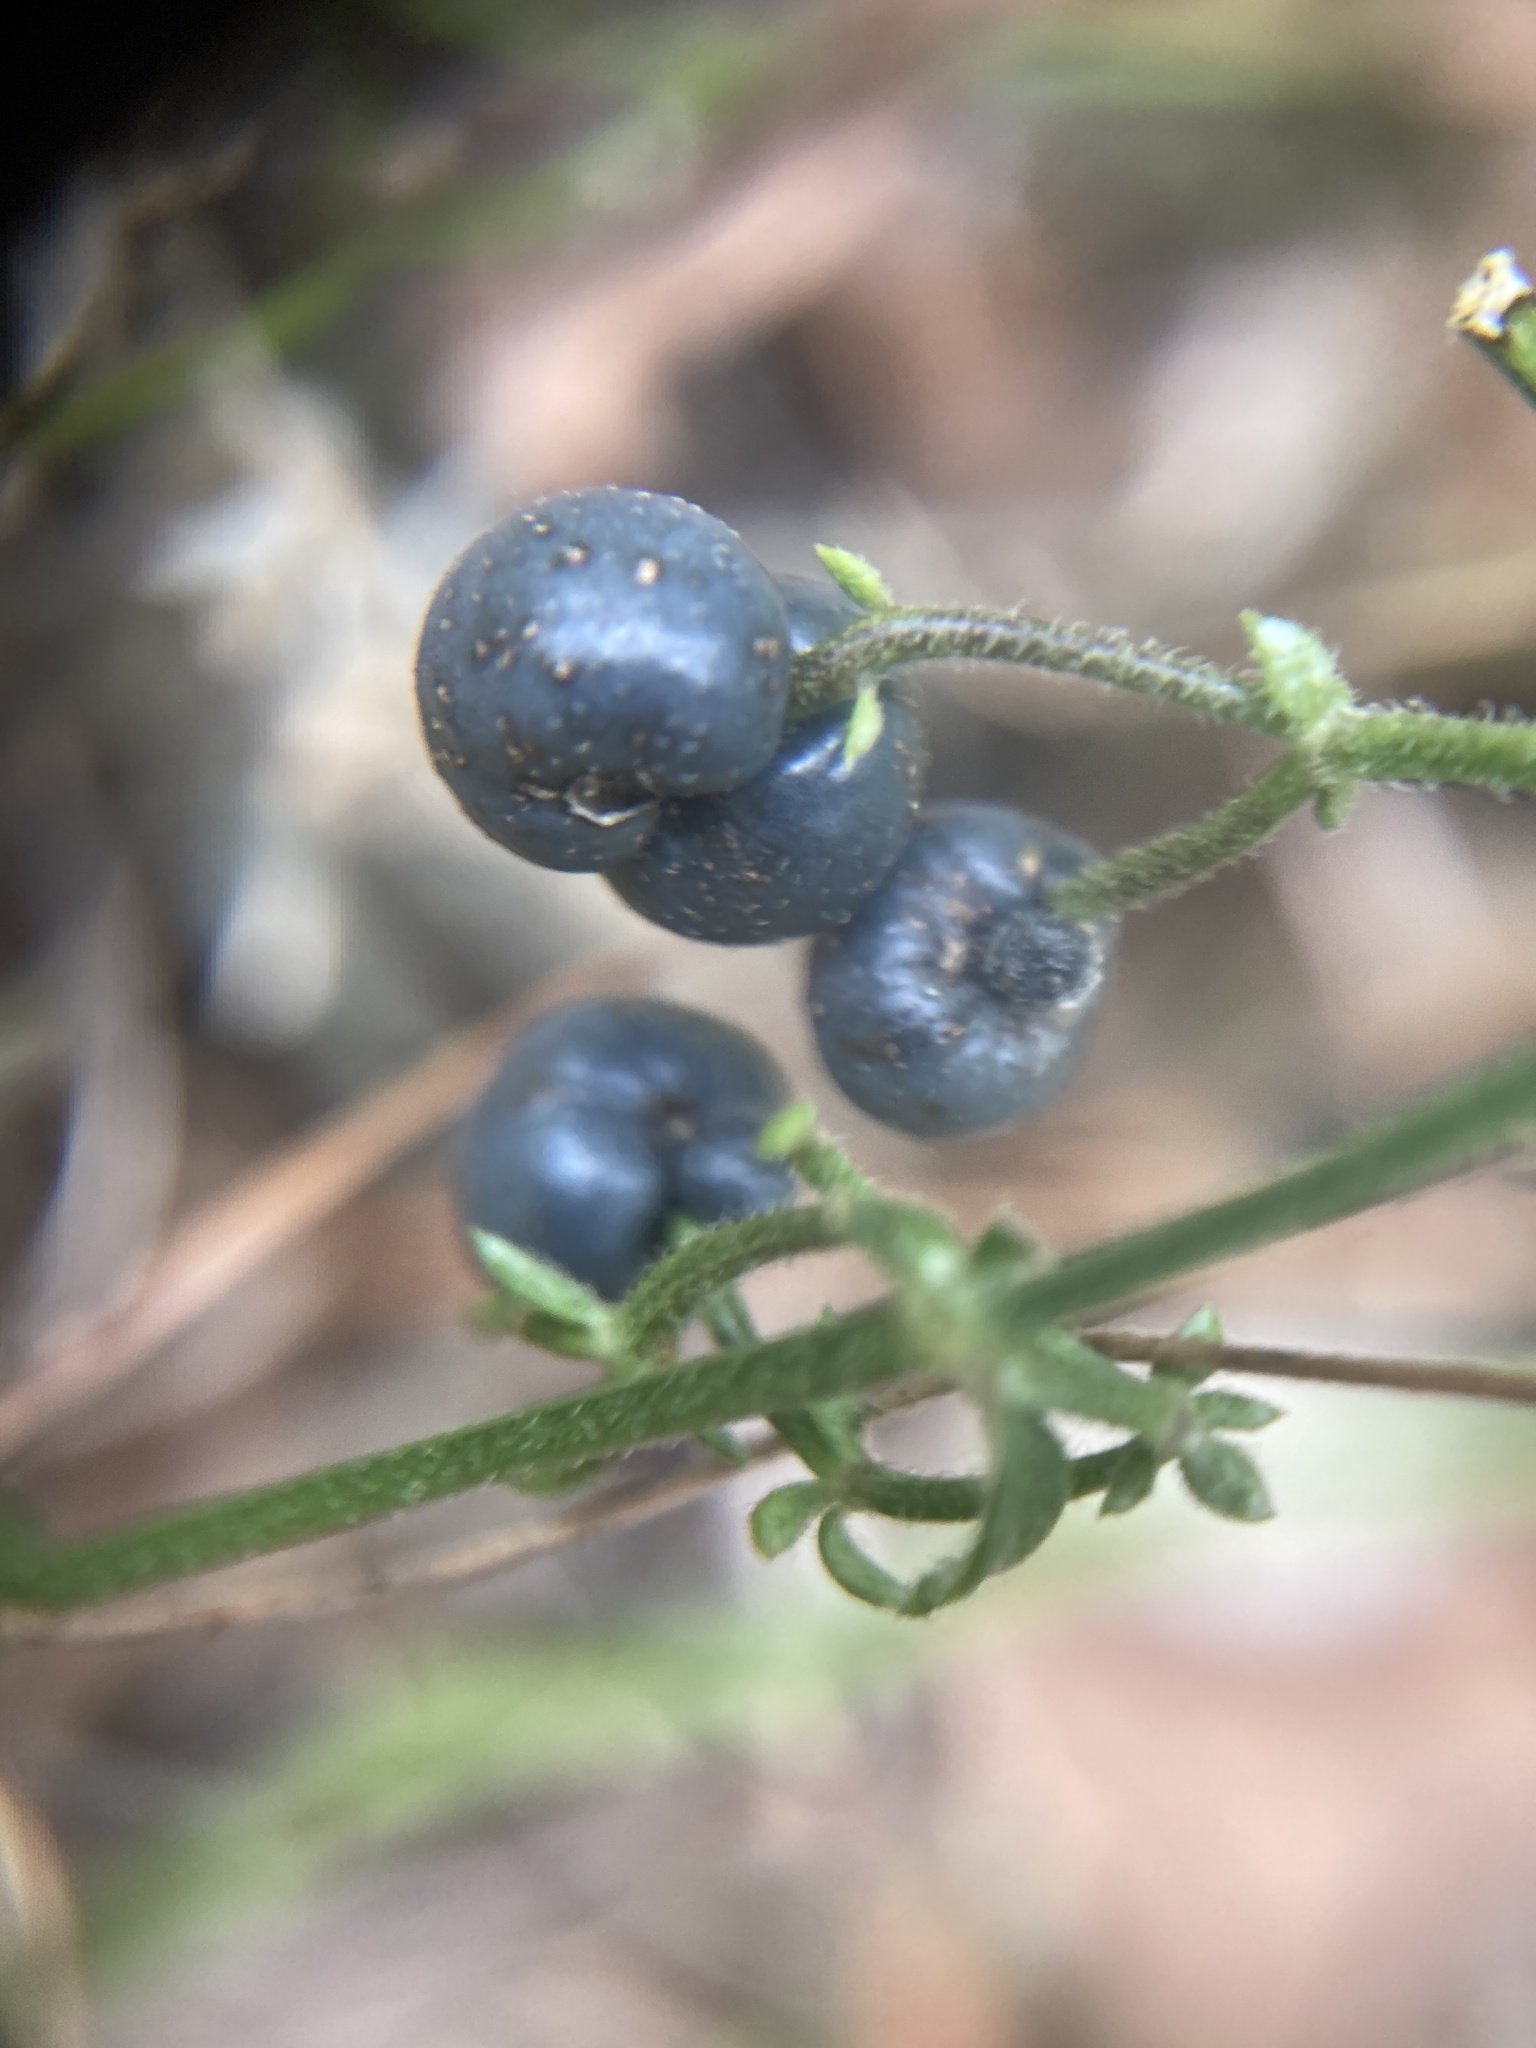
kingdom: Plantae
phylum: Tracheophyta
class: Magnoliopsida
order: Gentianales
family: Rubiaceae
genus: Galium
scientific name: Galium bermudense
